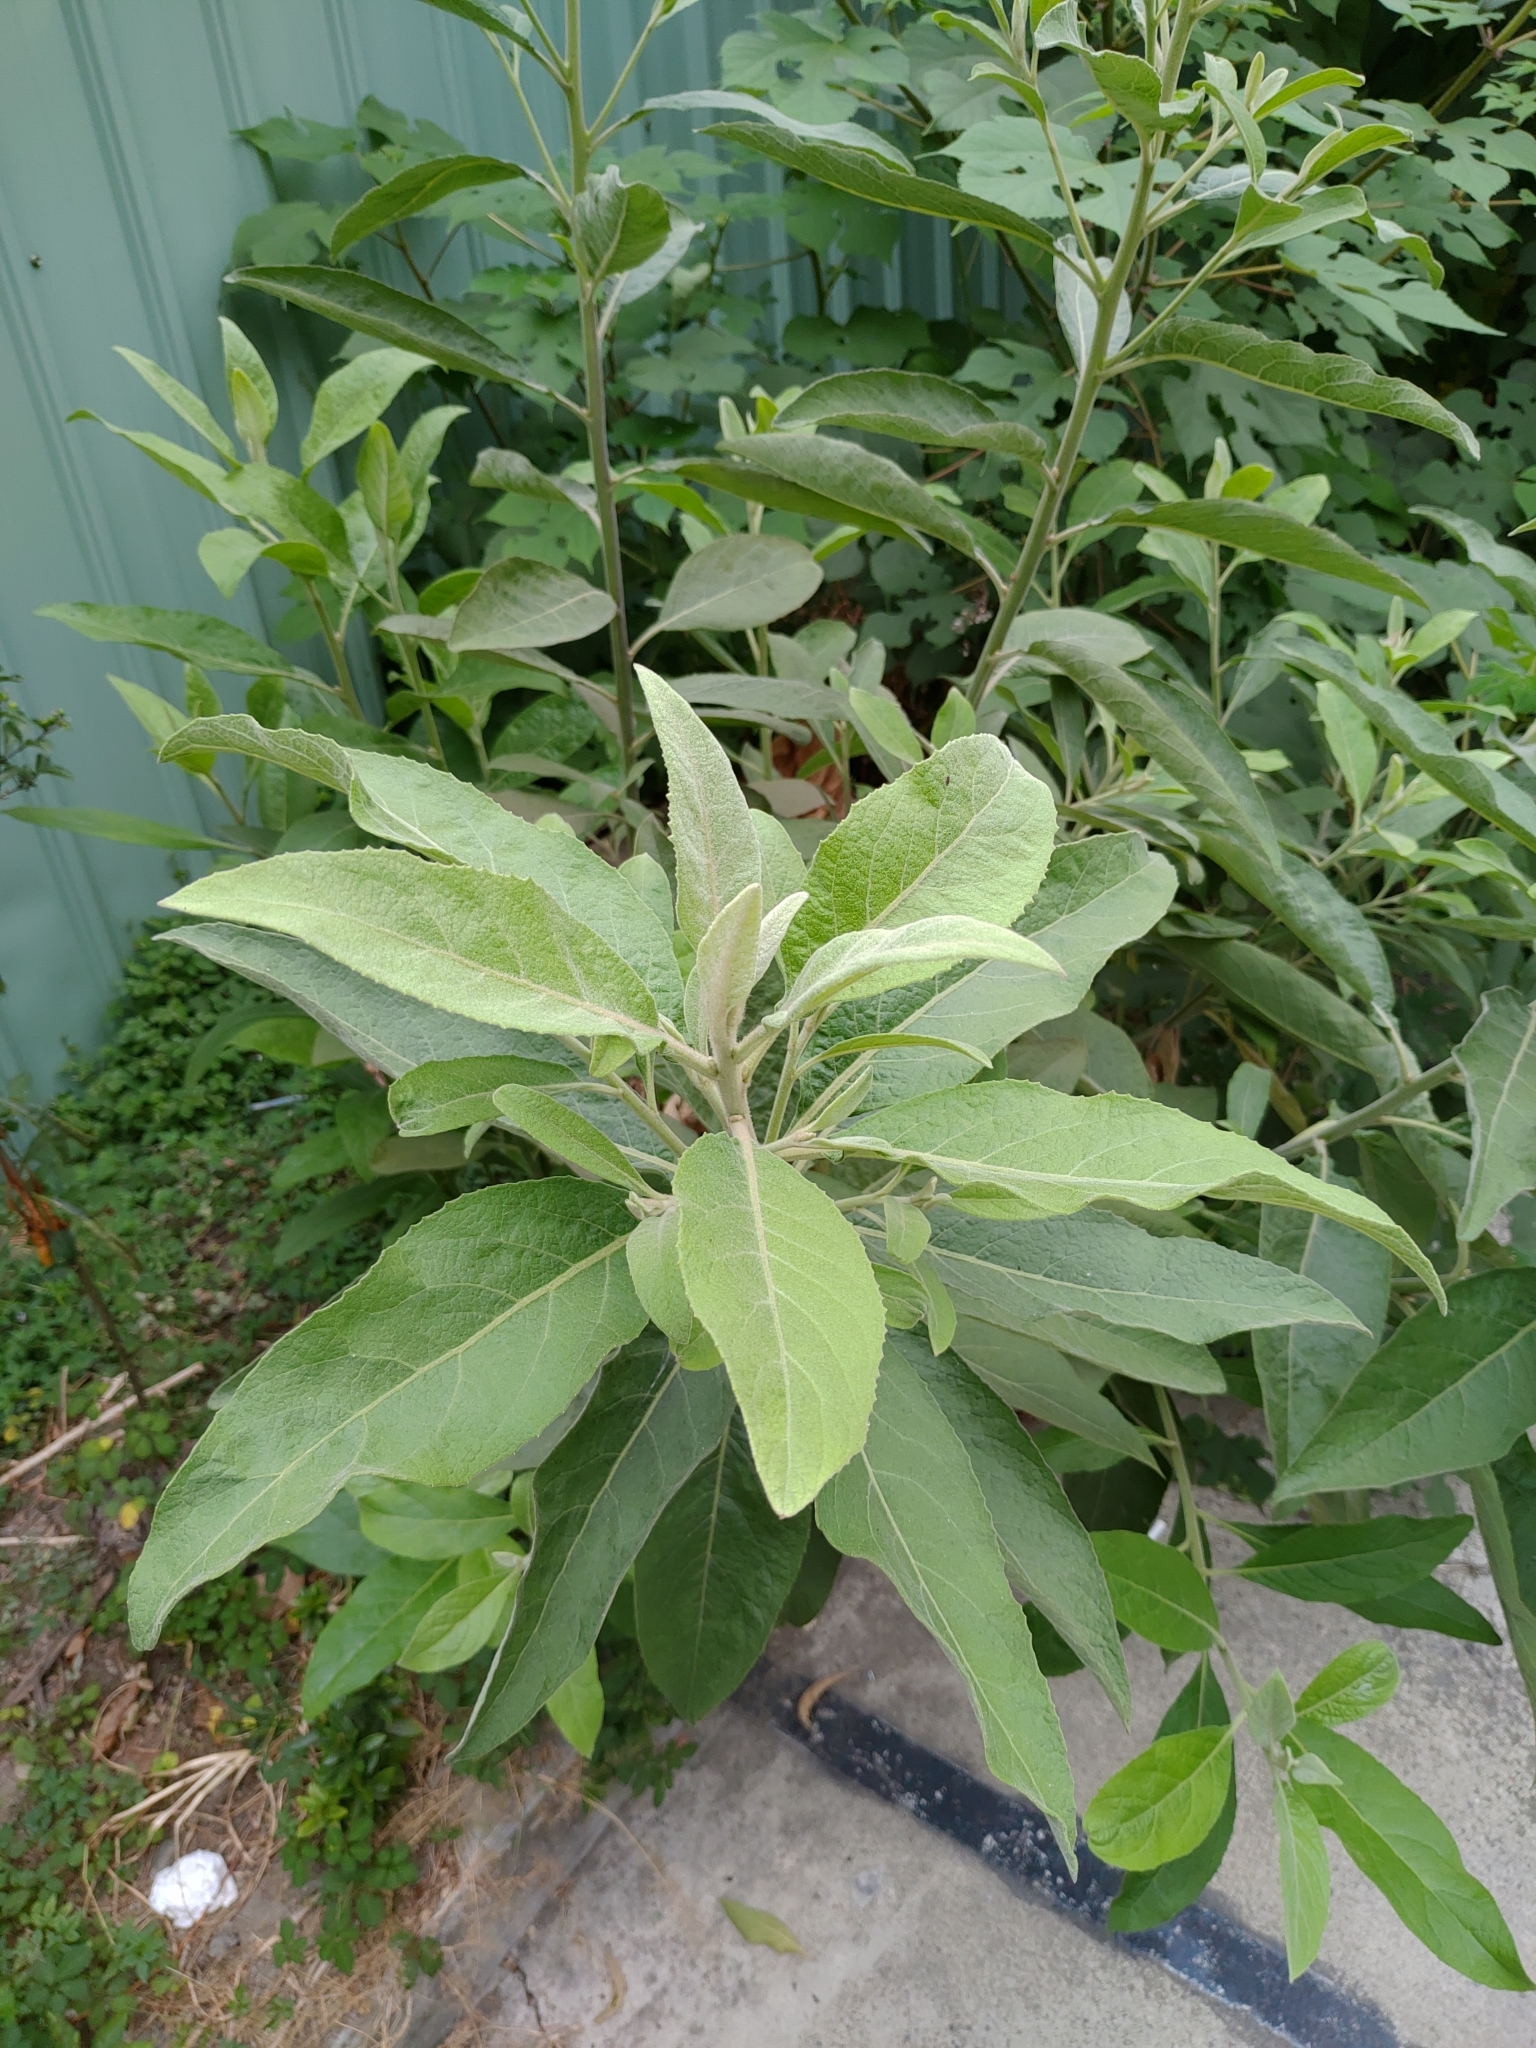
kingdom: Plantae
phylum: Tracheophyta
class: Magnoliopsida
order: Asterales
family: Asteraceae
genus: Pluchea
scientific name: Pluchea carolinensis
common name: Marsh fleabane
